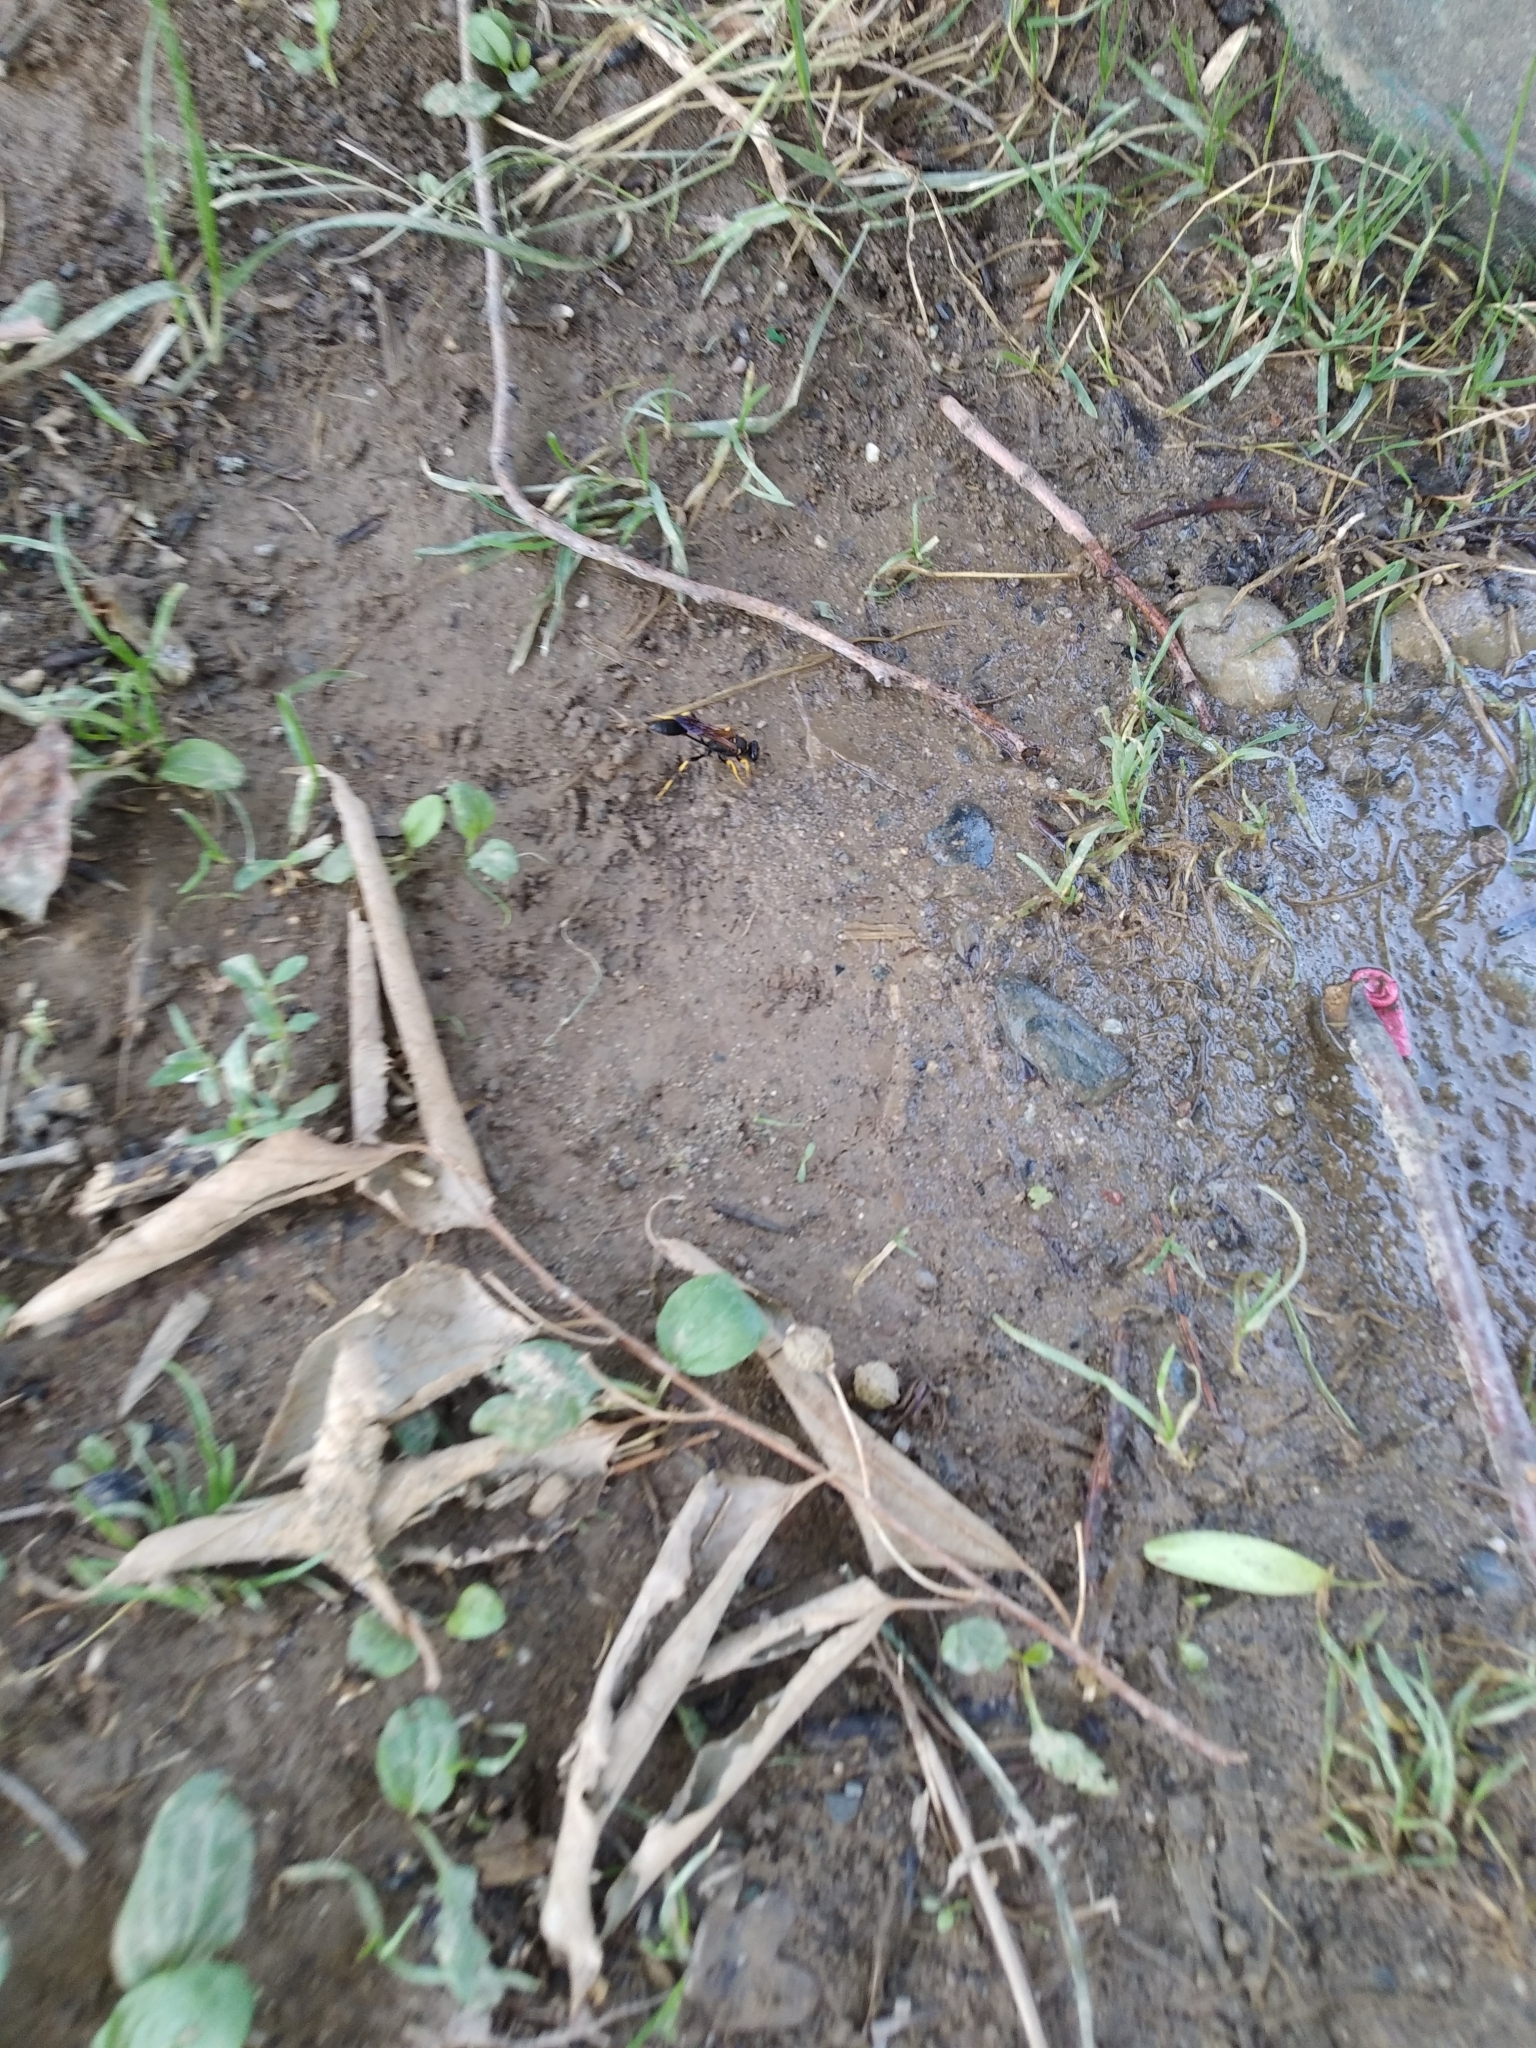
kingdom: Animalia
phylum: Arthropoda
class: Insecta
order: Hymenoptera
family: Sphecidae
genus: Sceliphron
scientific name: Sceliphron caementarium
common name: Mud dauber
